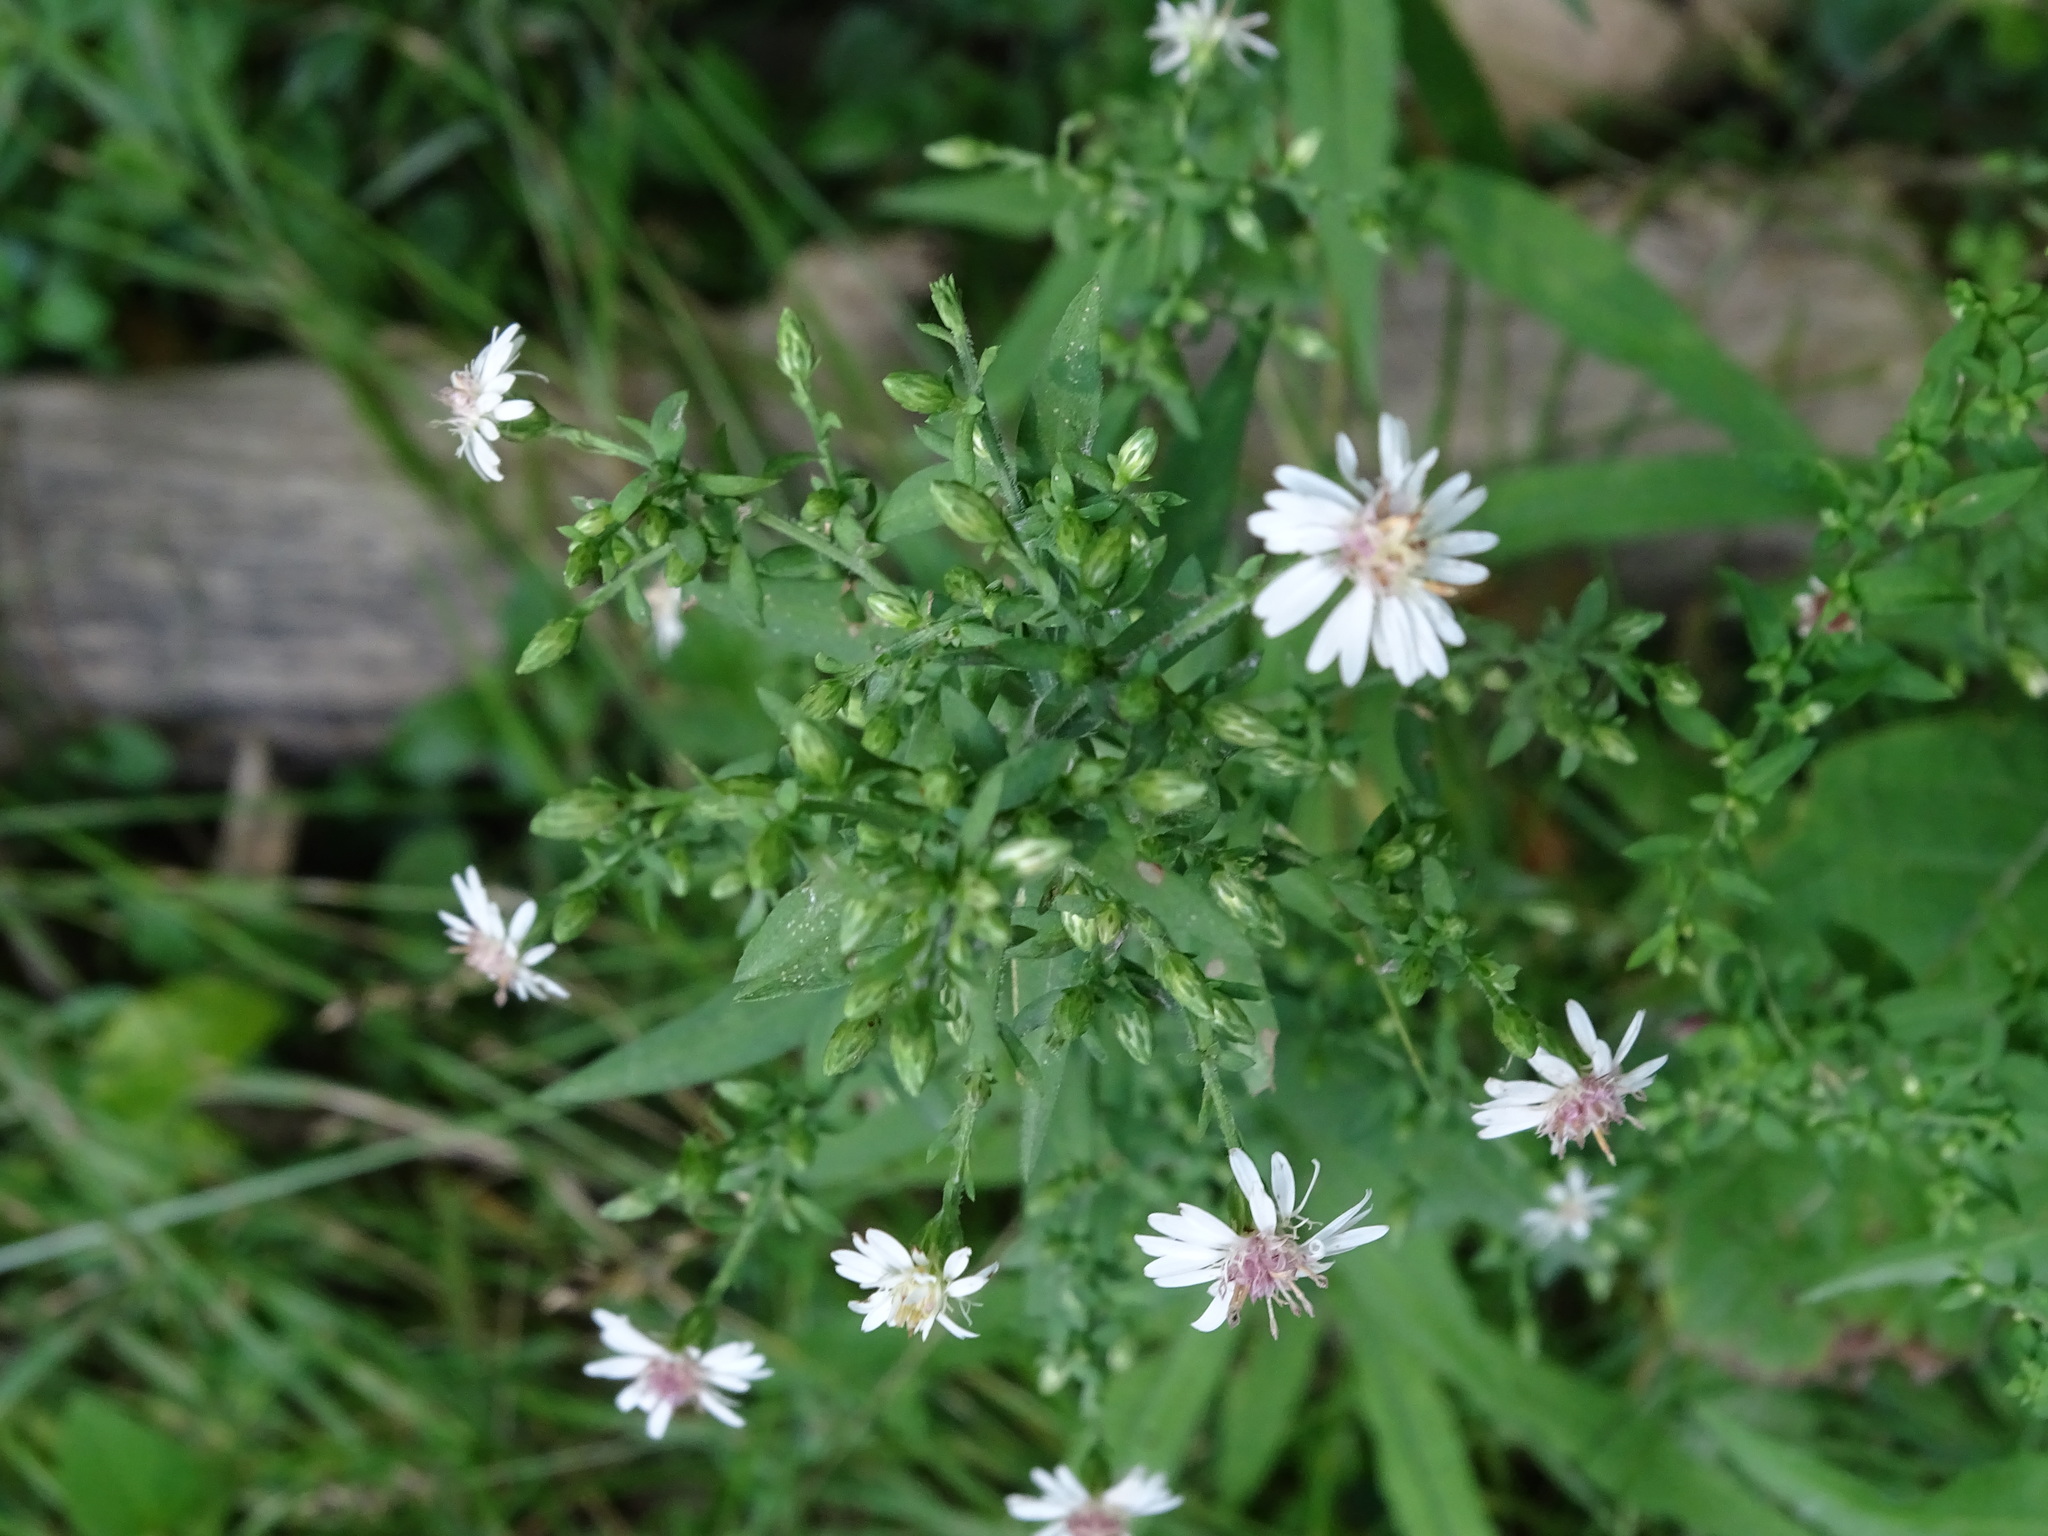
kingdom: Plantae
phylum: Tracheophyta
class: Magnoliopsida
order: Asterales
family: Asteraceae
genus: Symphyotrichum
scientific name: Symphyotrichum lateriflorum
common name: Calico aster
